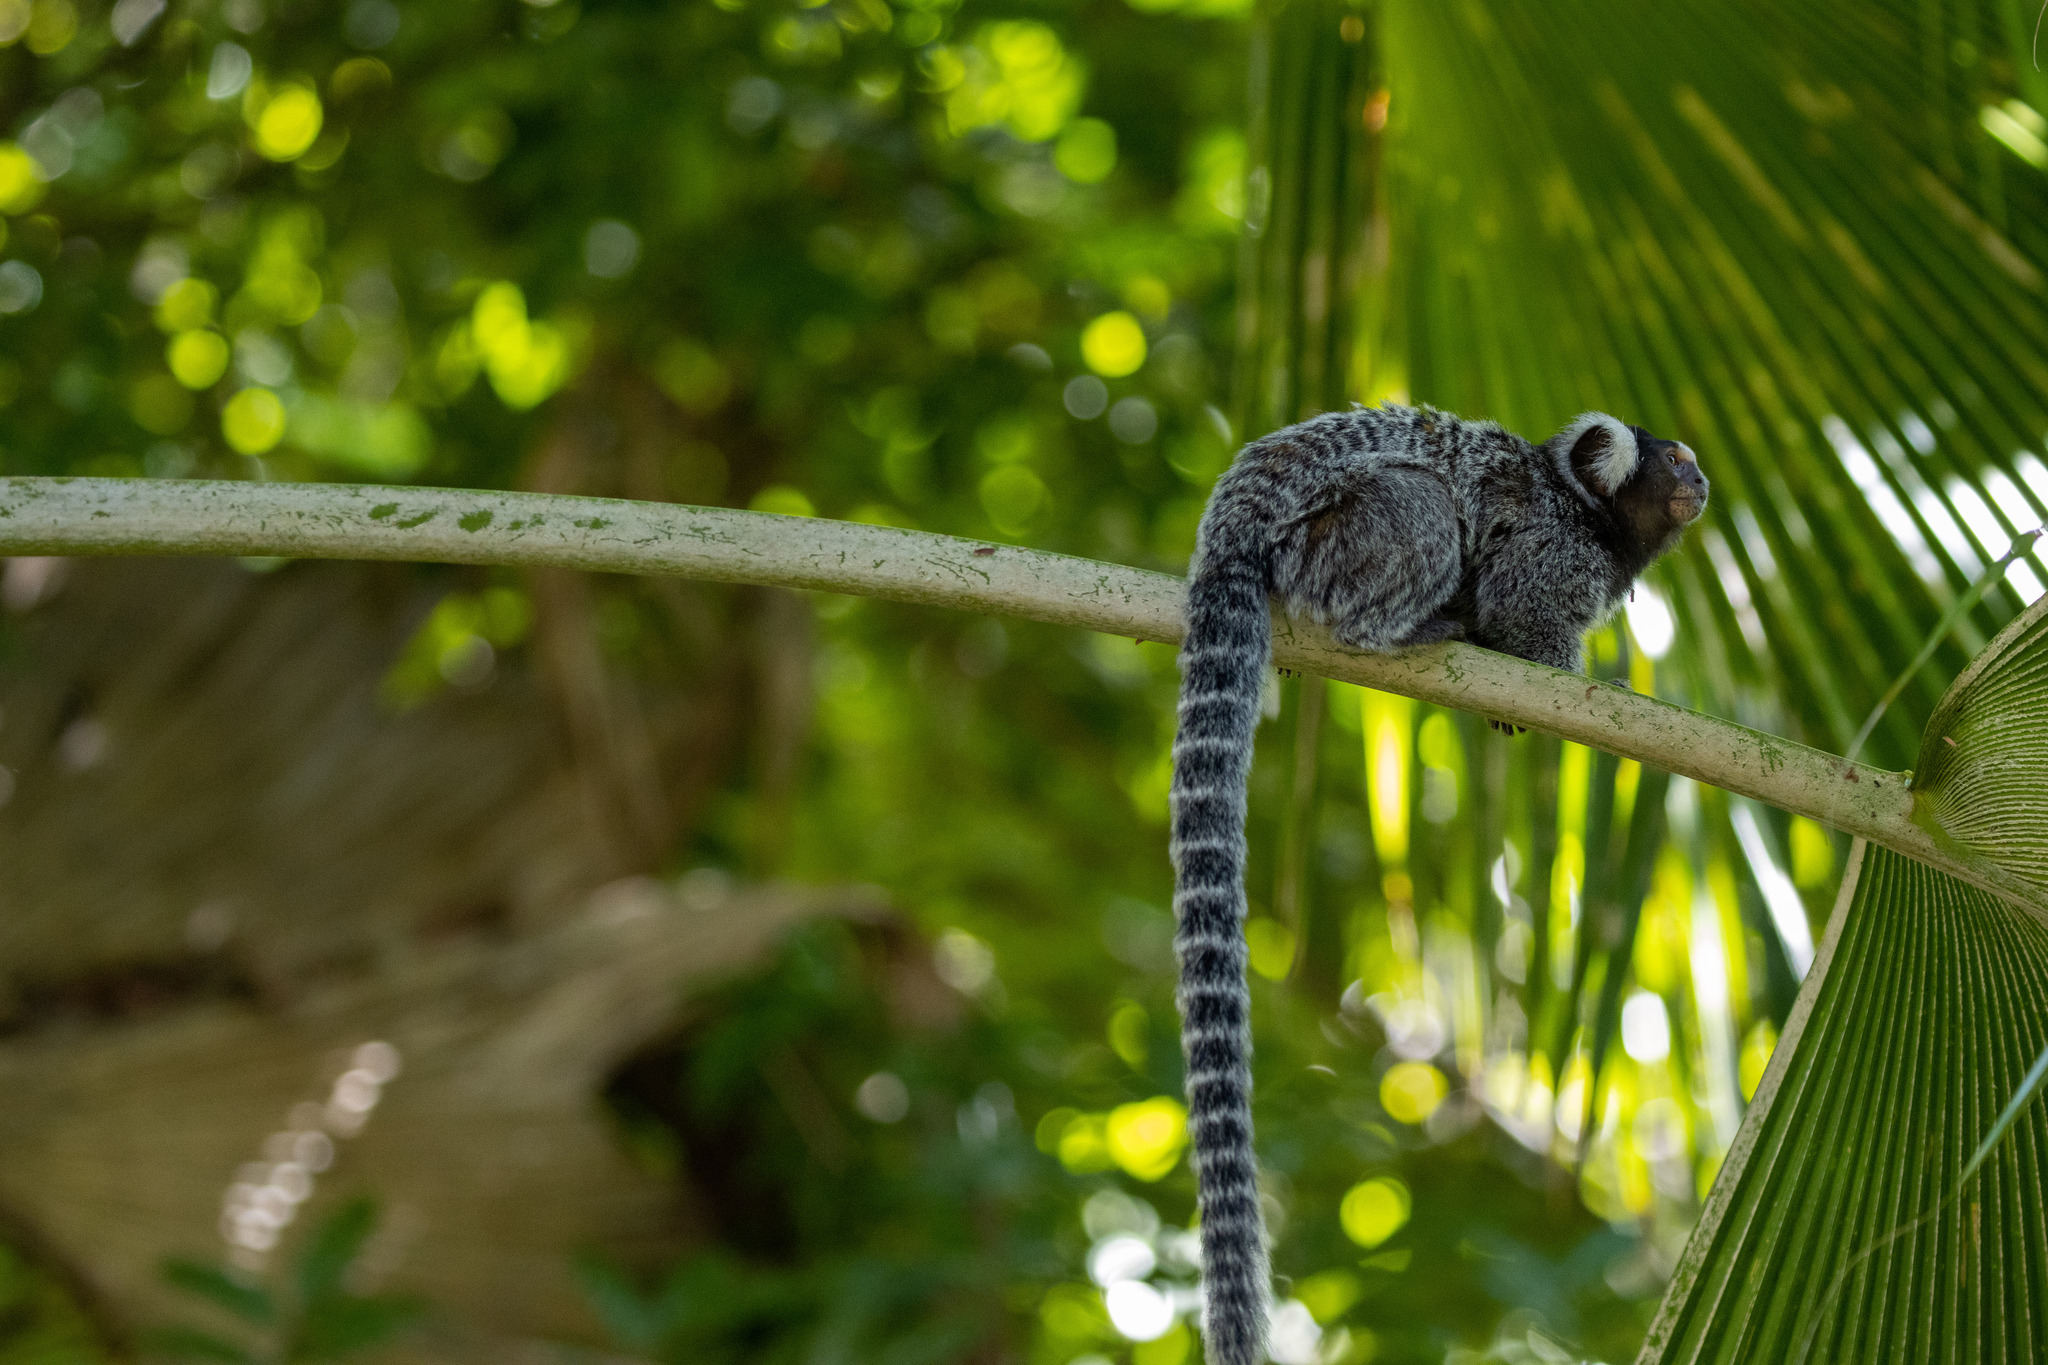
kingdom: Animalia
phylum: Chordata
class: Mammalia
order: Primates
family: Callitrichidae
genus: Callithrix
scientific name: Callithrix jacchus
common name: Common marmoset
